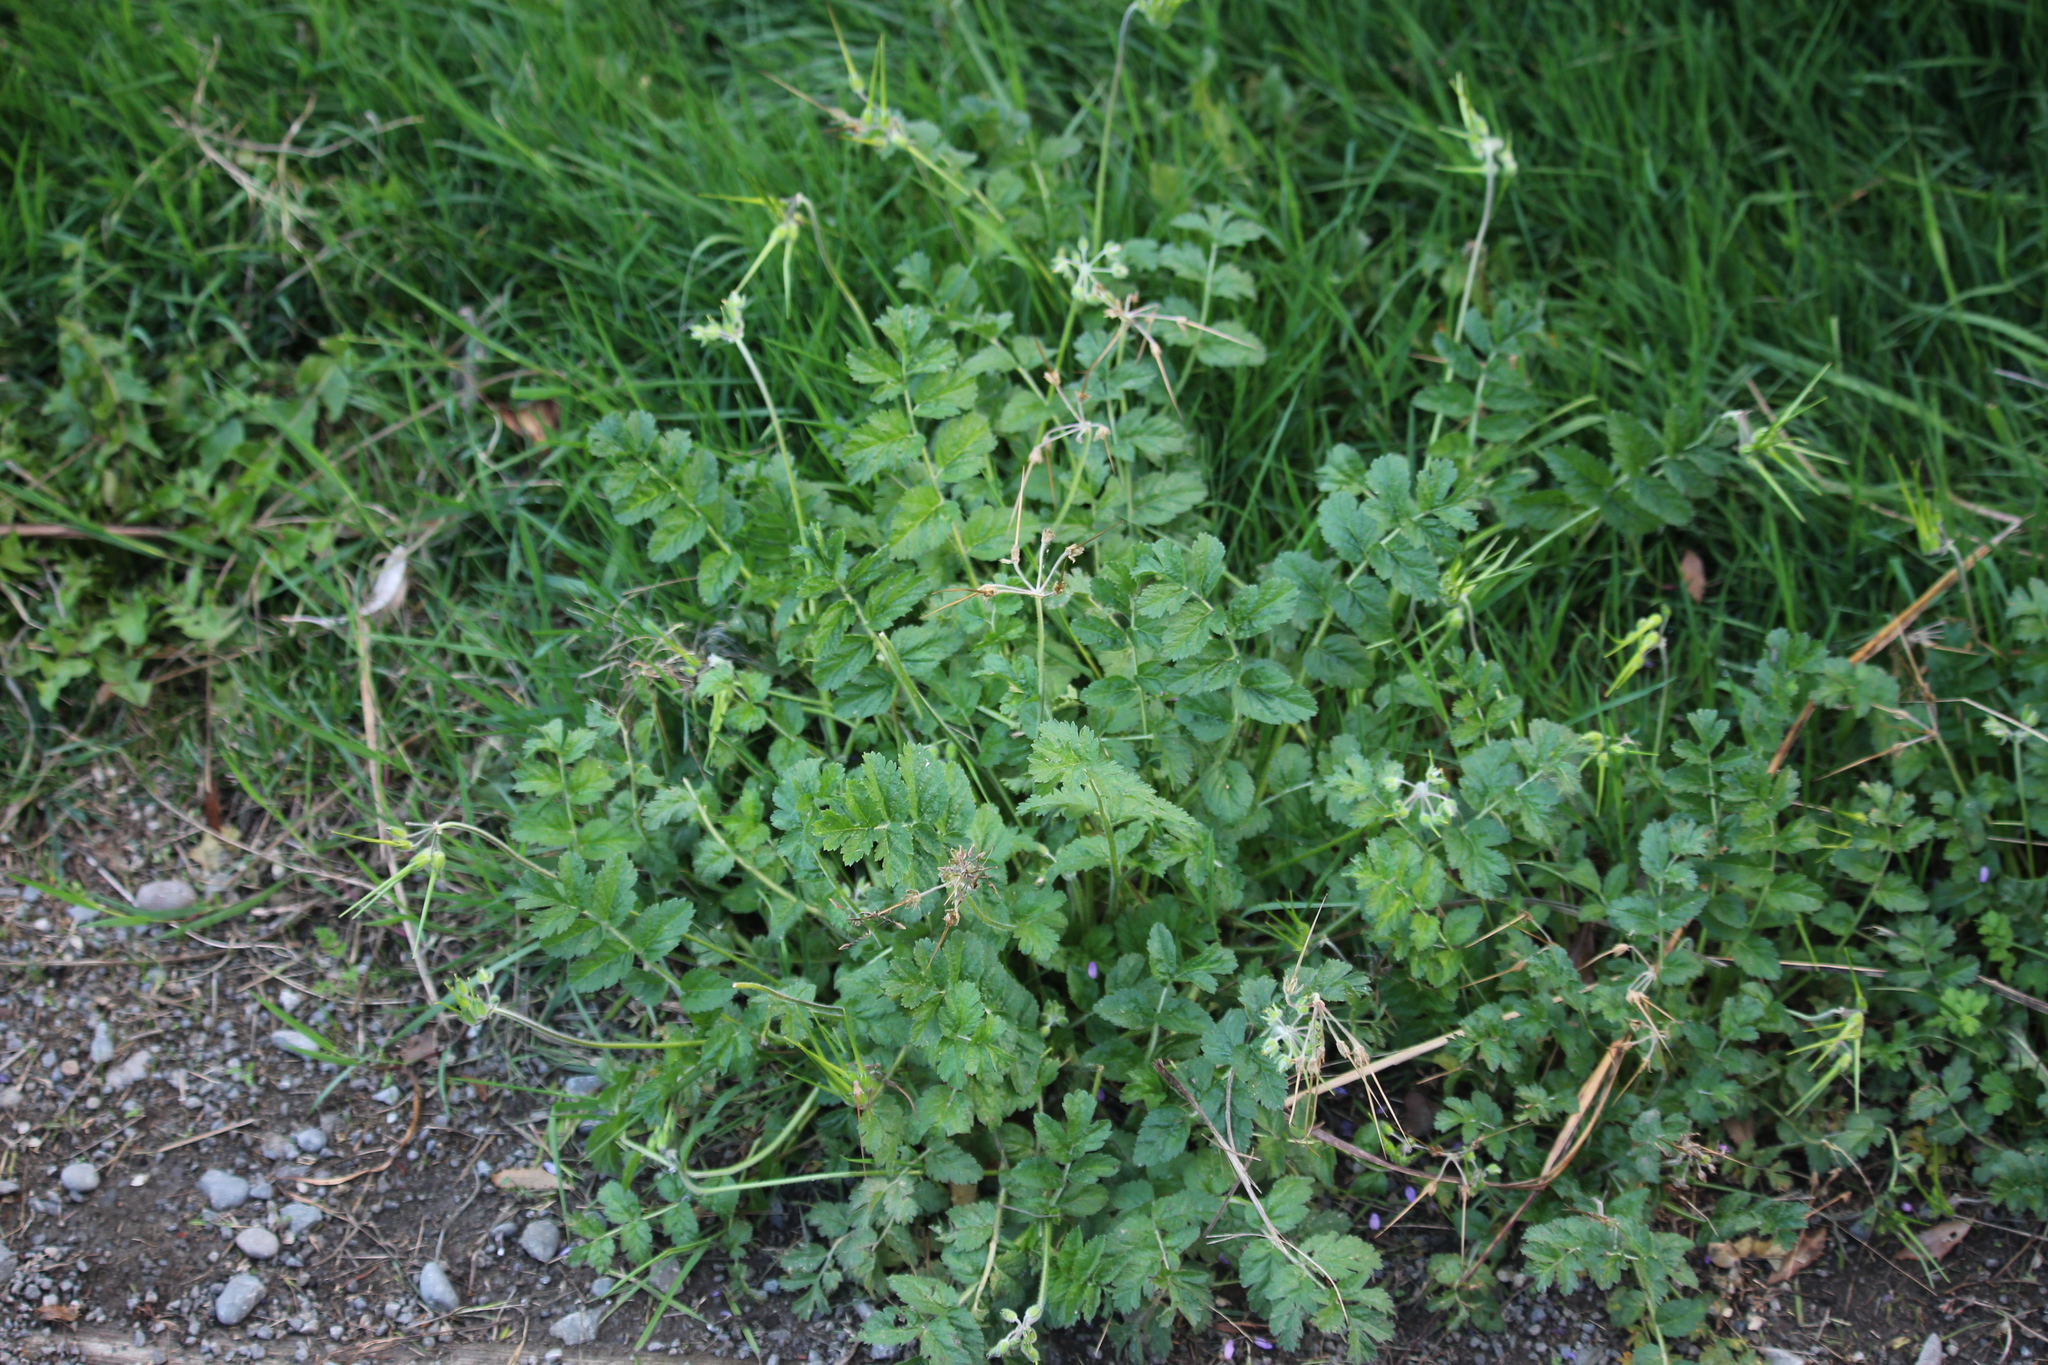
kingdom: Plantae
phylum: Tracheophyta
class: Magnoliopsida
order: Geraniales
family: Geraniaceae
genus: Erodium
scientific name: Erodium moschatum
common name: Musk stork's-bill
